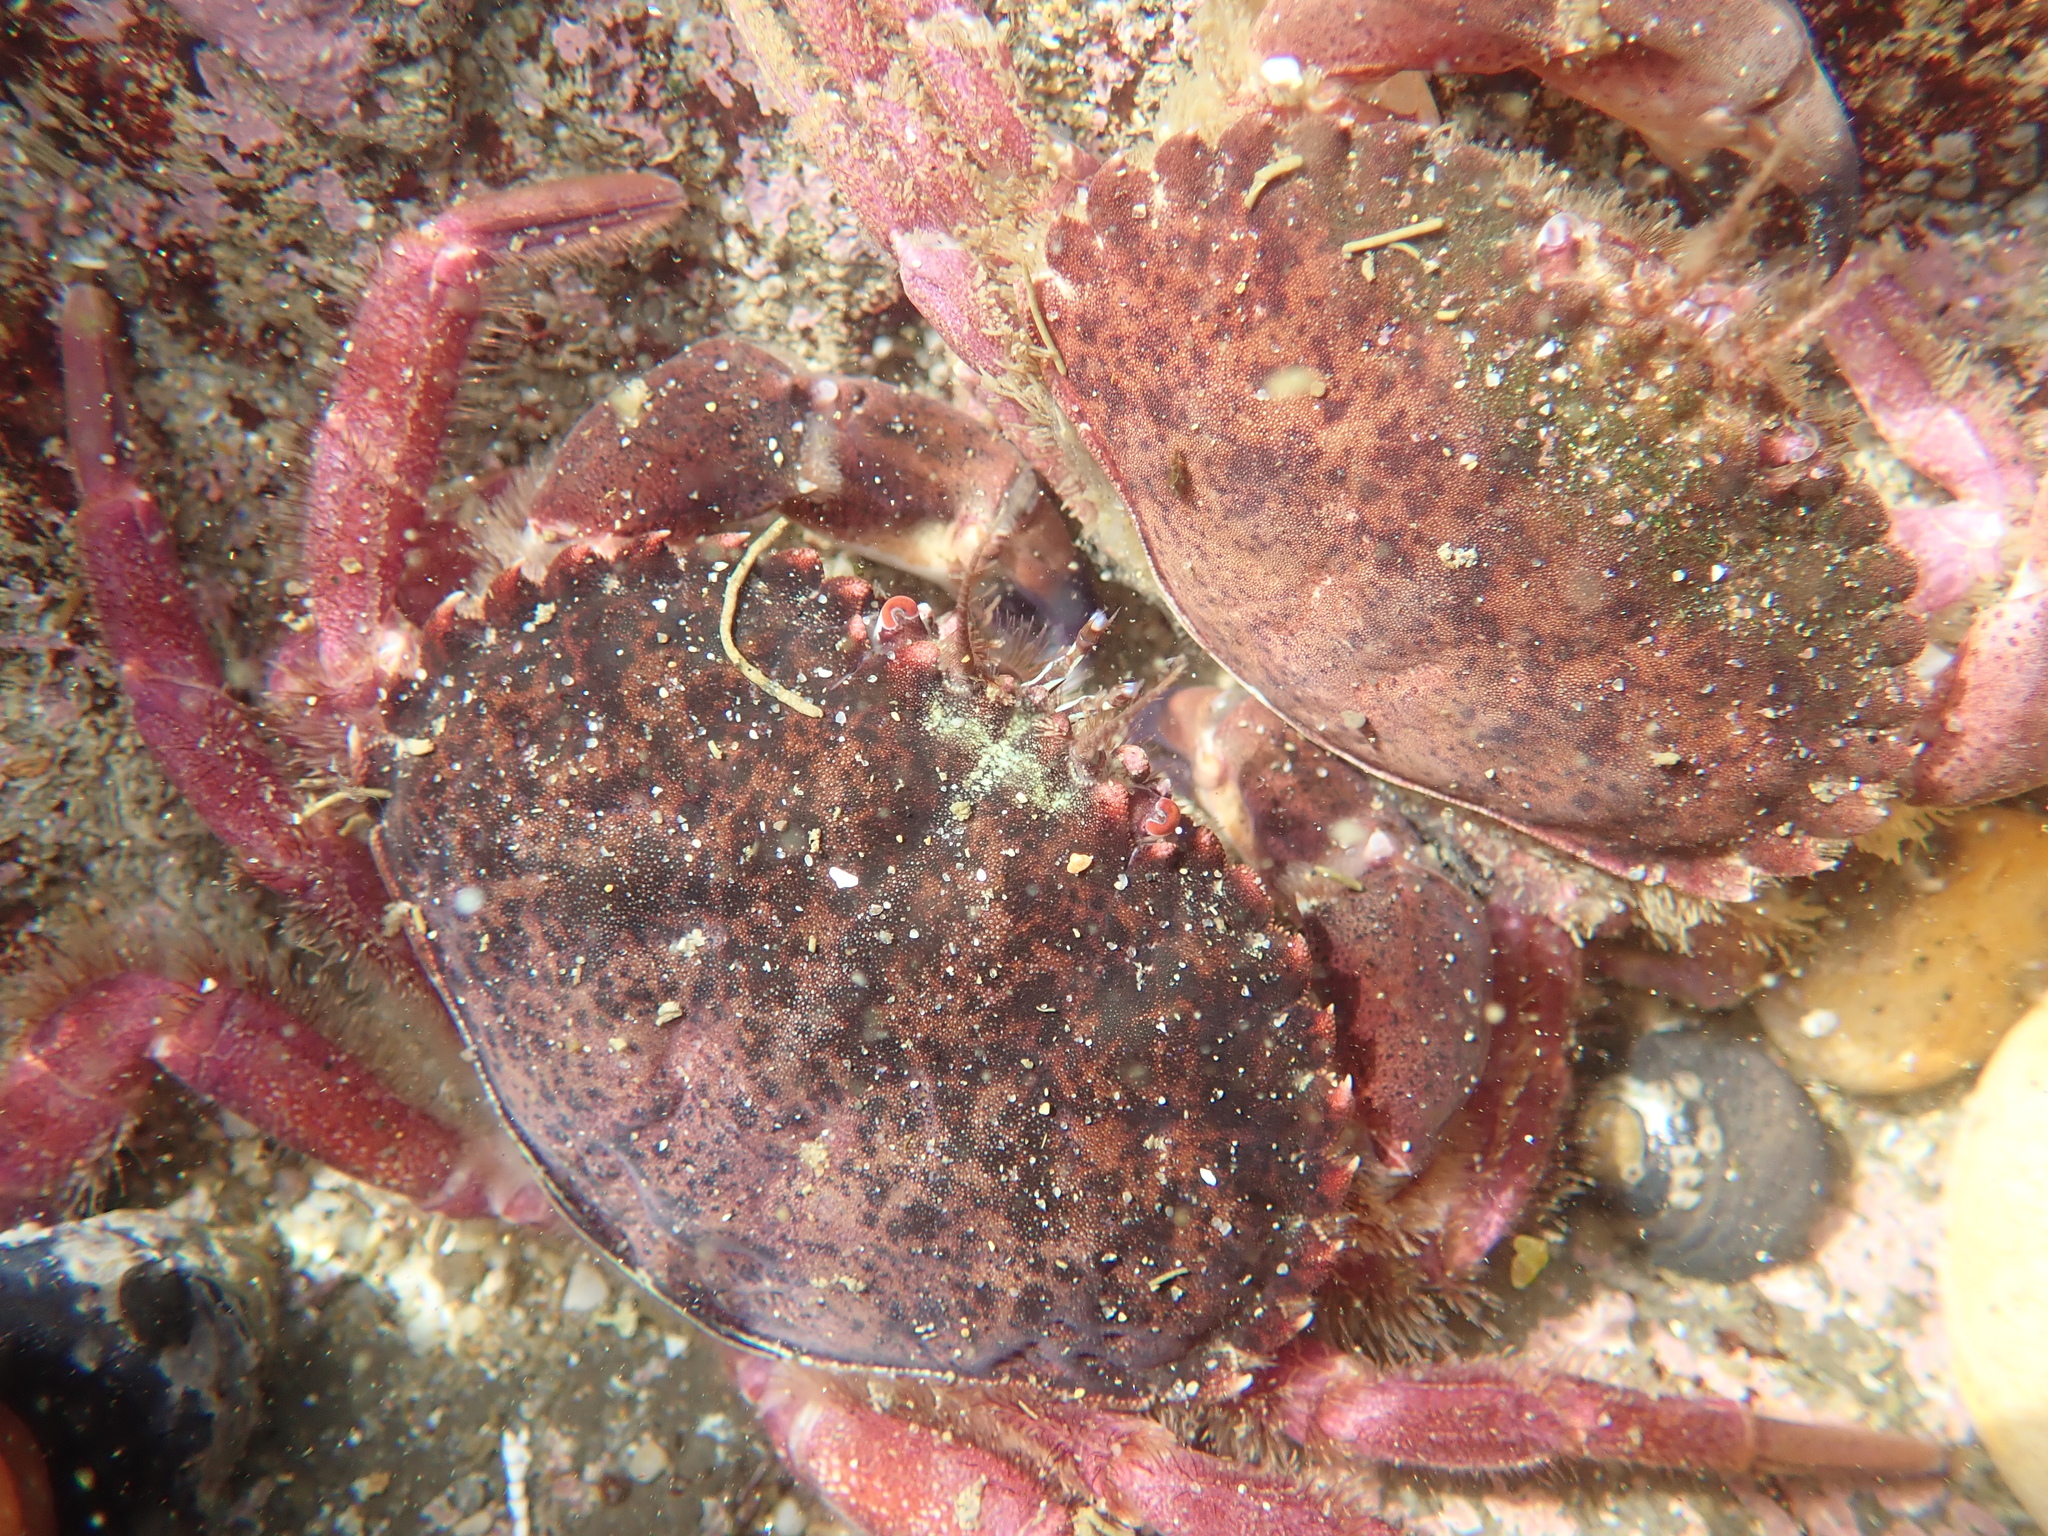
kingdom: Animalia
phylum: Arthropoda
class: Malacostraca
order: Decapoda
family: Cancridae
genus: Romaleon
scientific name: Romaleon antennarium
